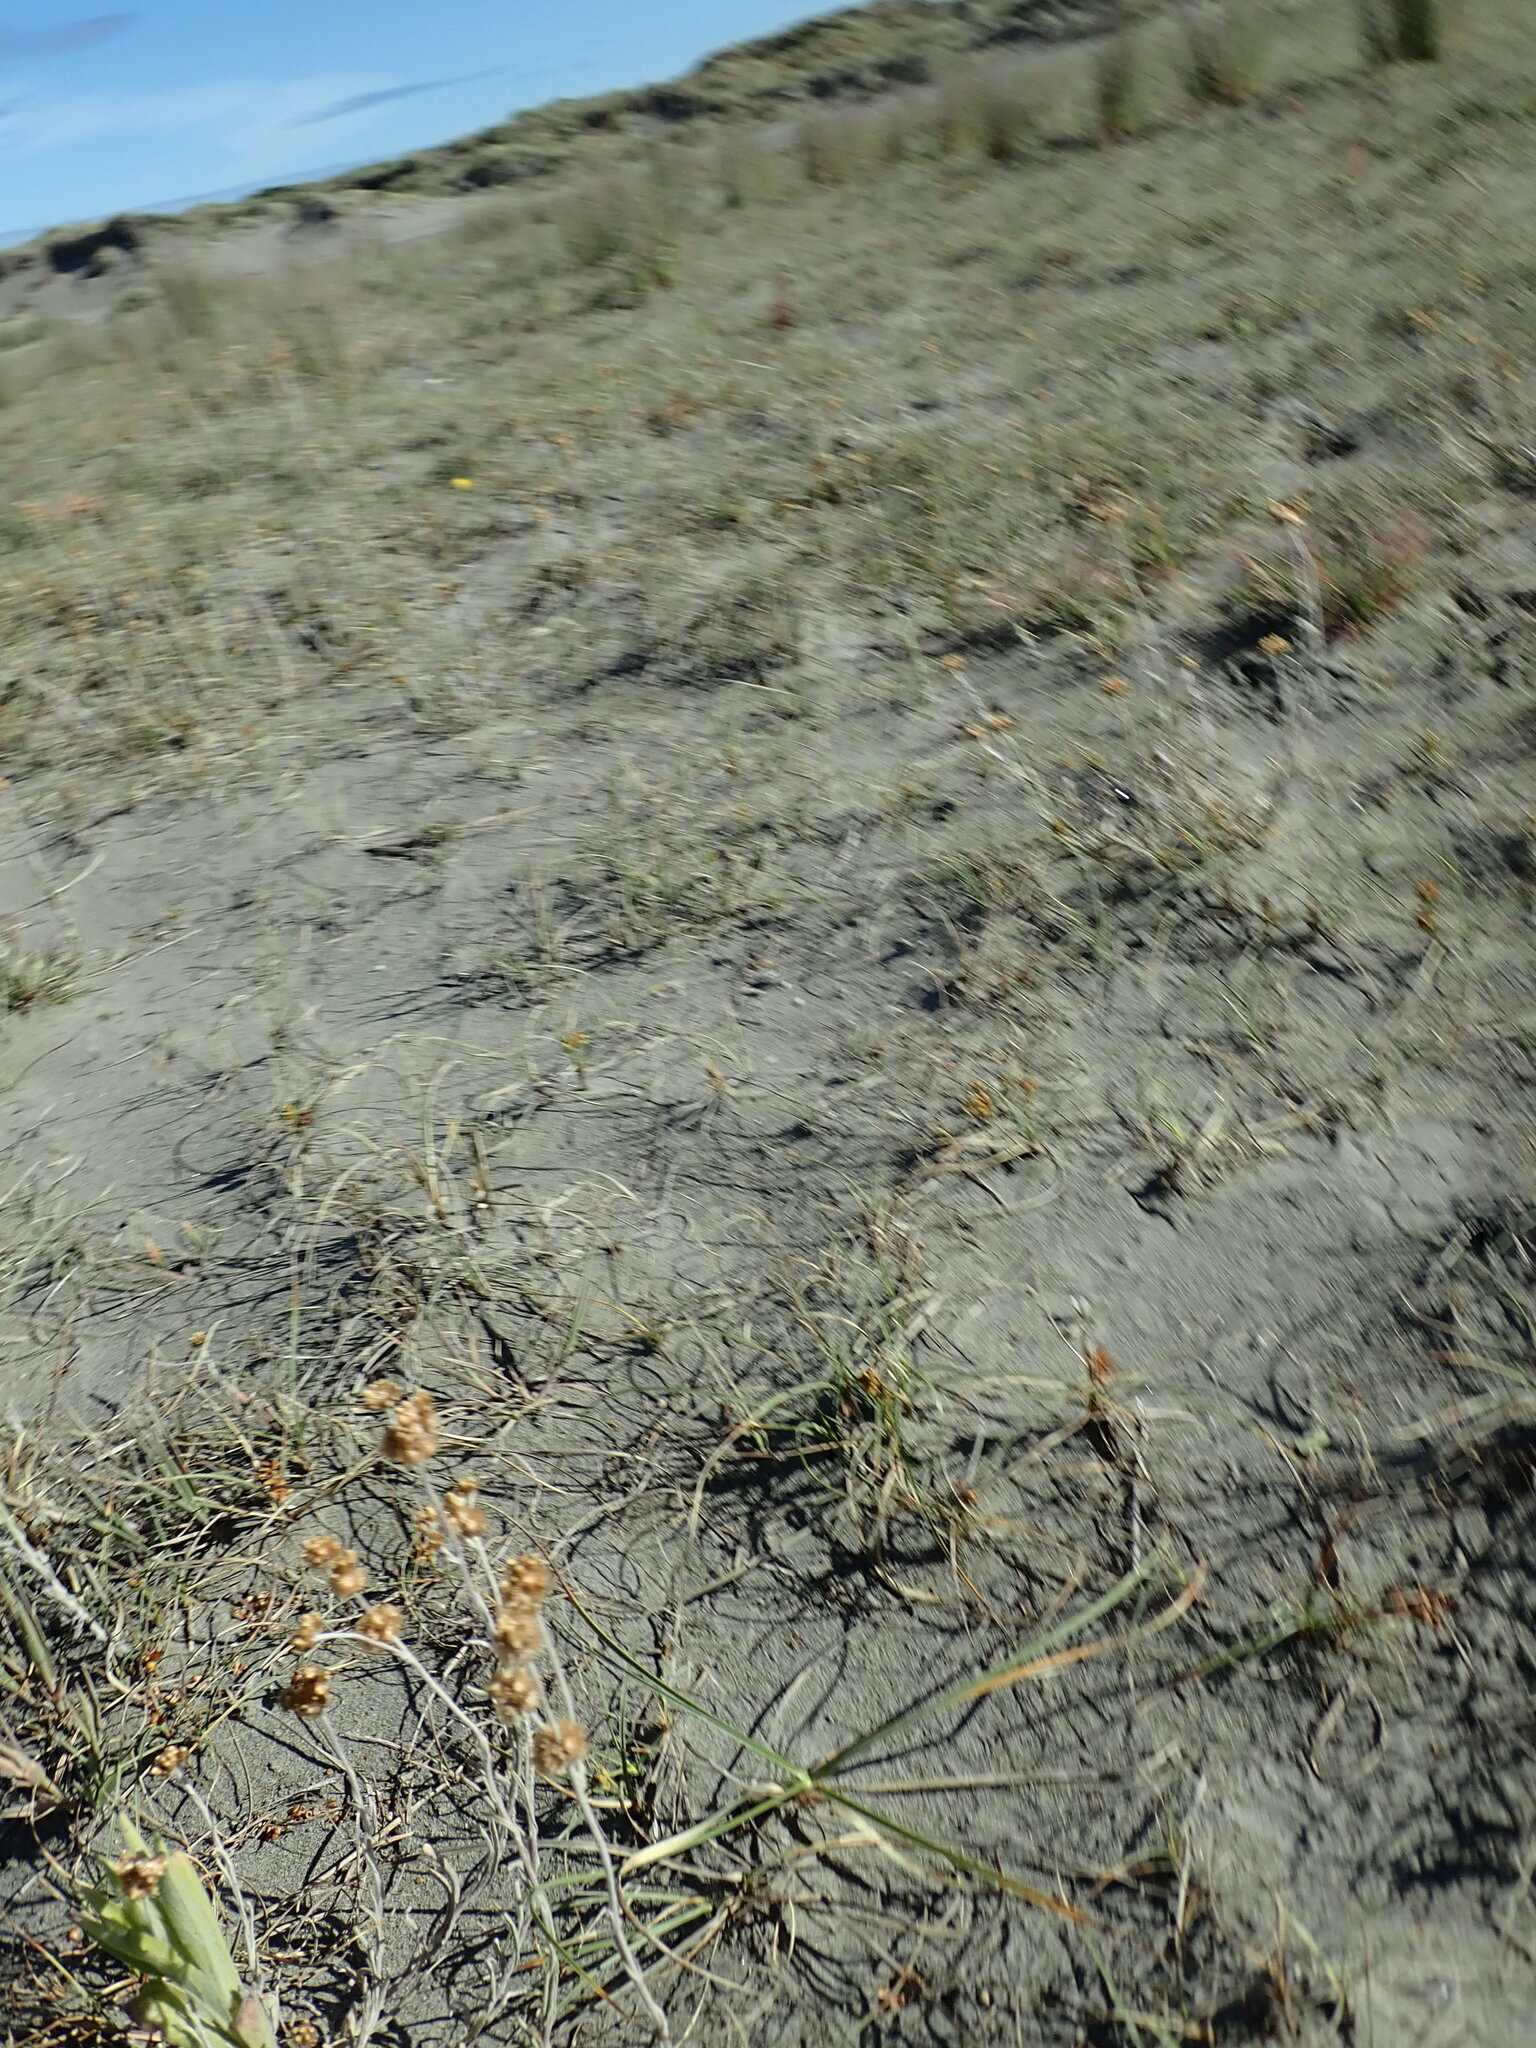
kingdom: Plantae
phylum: Tracheophyta
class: Liliopsida
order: Poales
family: Cyperaceae
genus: Carex
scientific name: Carex pumila
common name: Dwarf sedge
